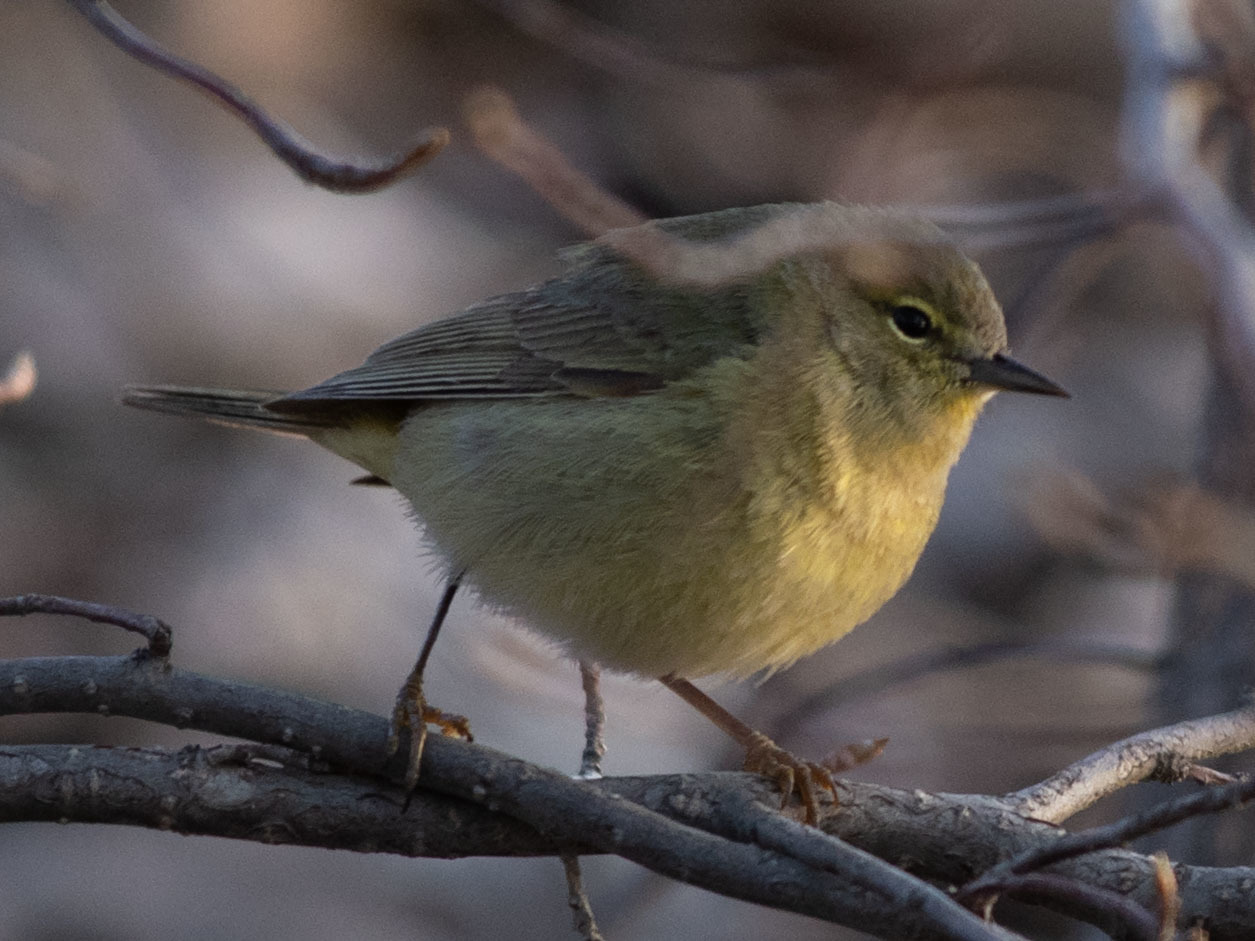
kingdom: Animalia
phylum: Chordata
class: Aves
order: Passeriformes
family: Parulidae
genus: Leiothlypis
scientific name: Leiothlypis celata
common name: Orange-crowned warbler
